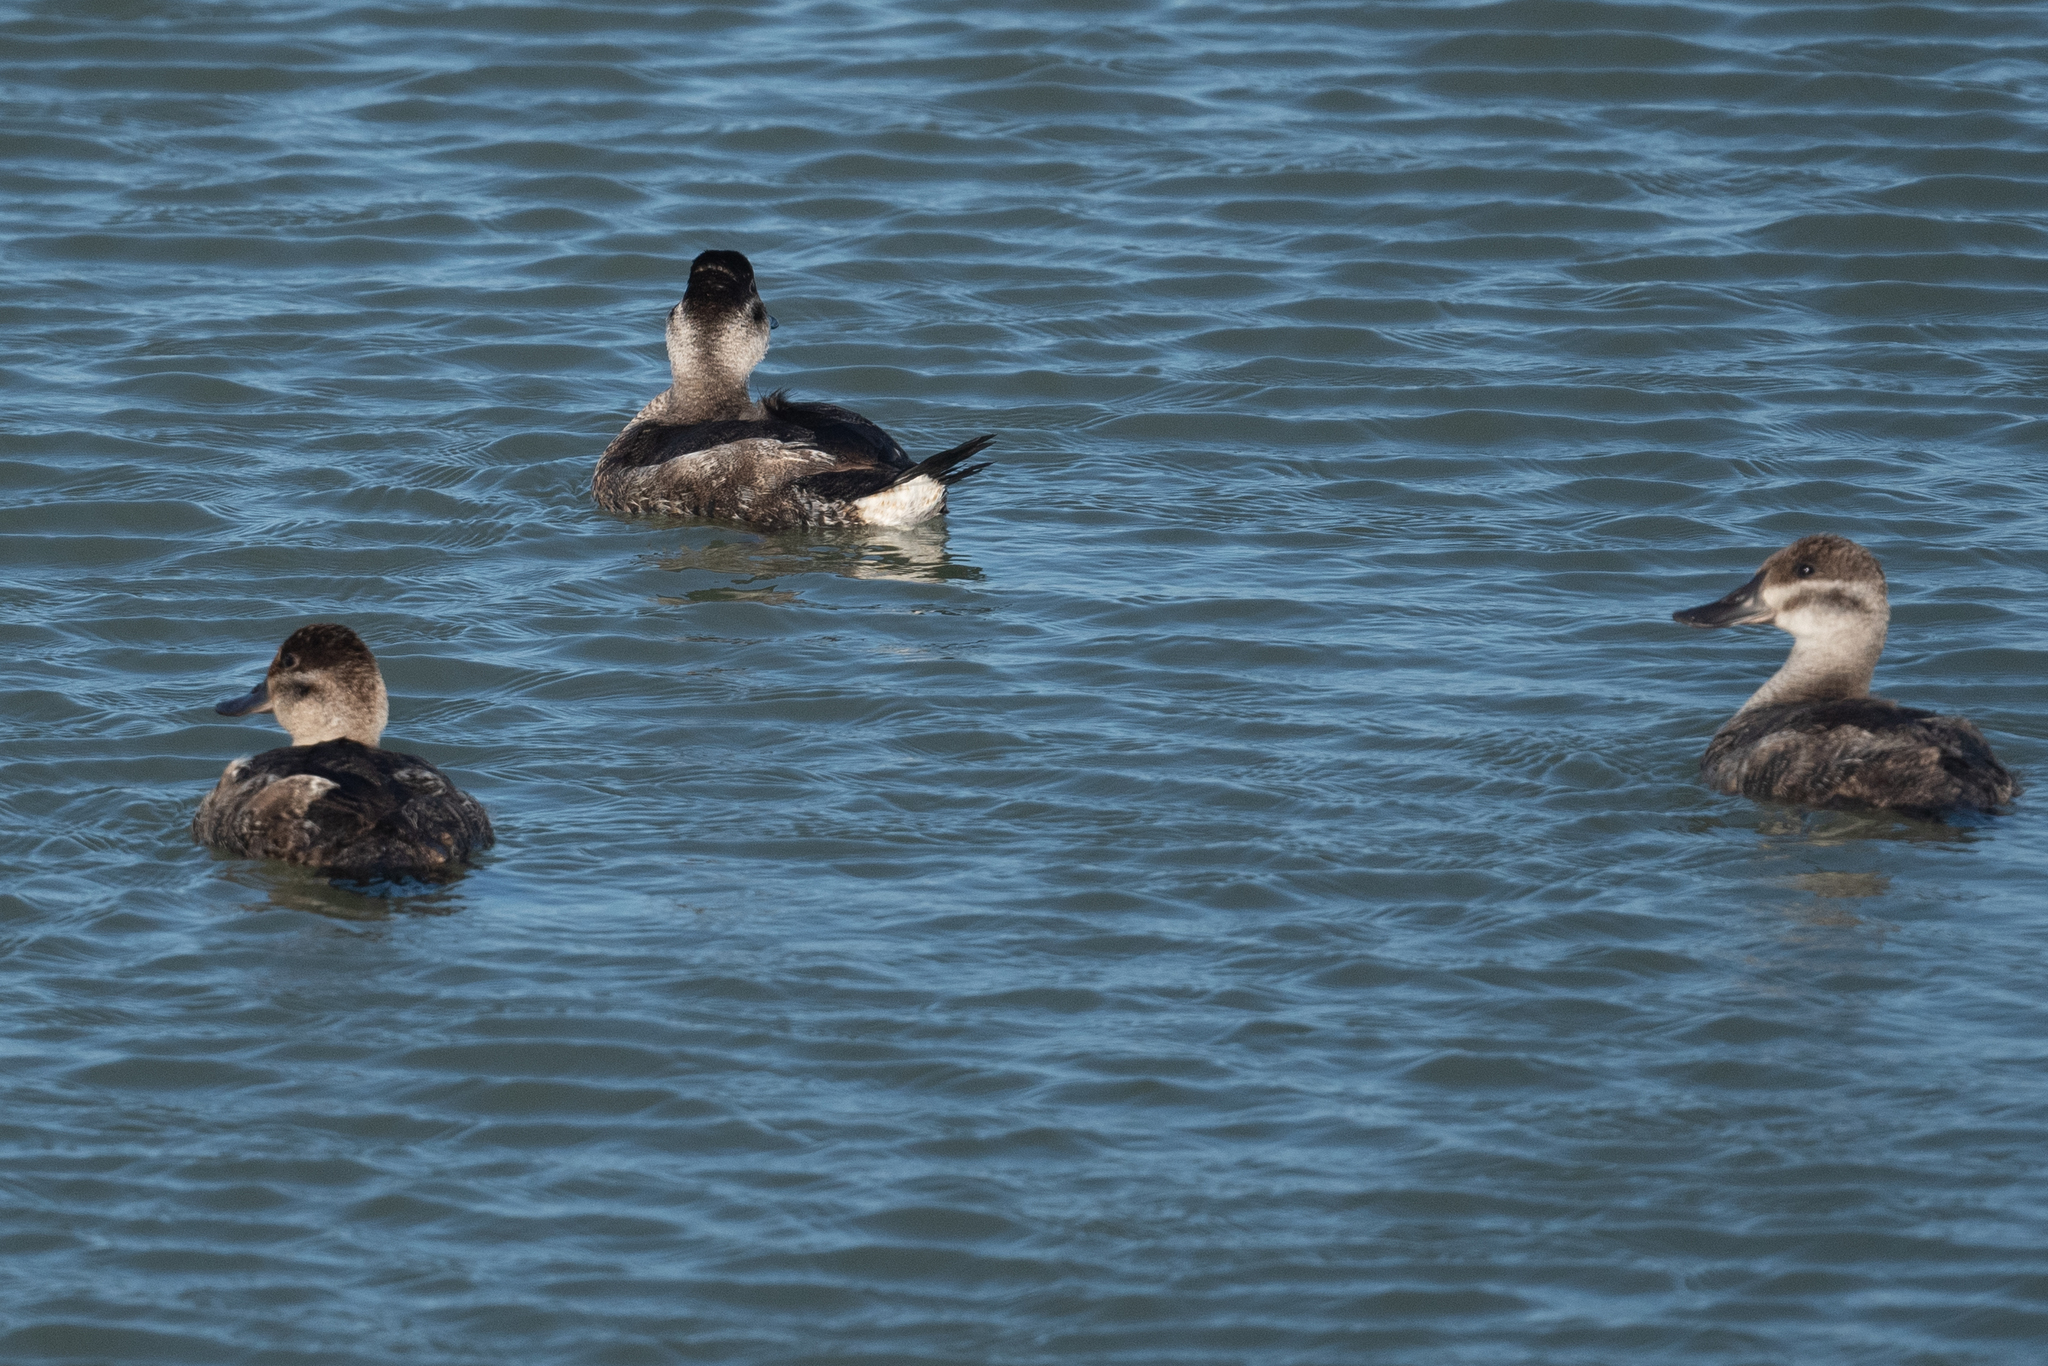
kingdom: Animalia
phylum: Chordata
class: Aves
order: Anseriformes
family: Anatidae
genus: Oxyura
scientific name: Oxyura jamaicensis
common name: Ruddy duck
